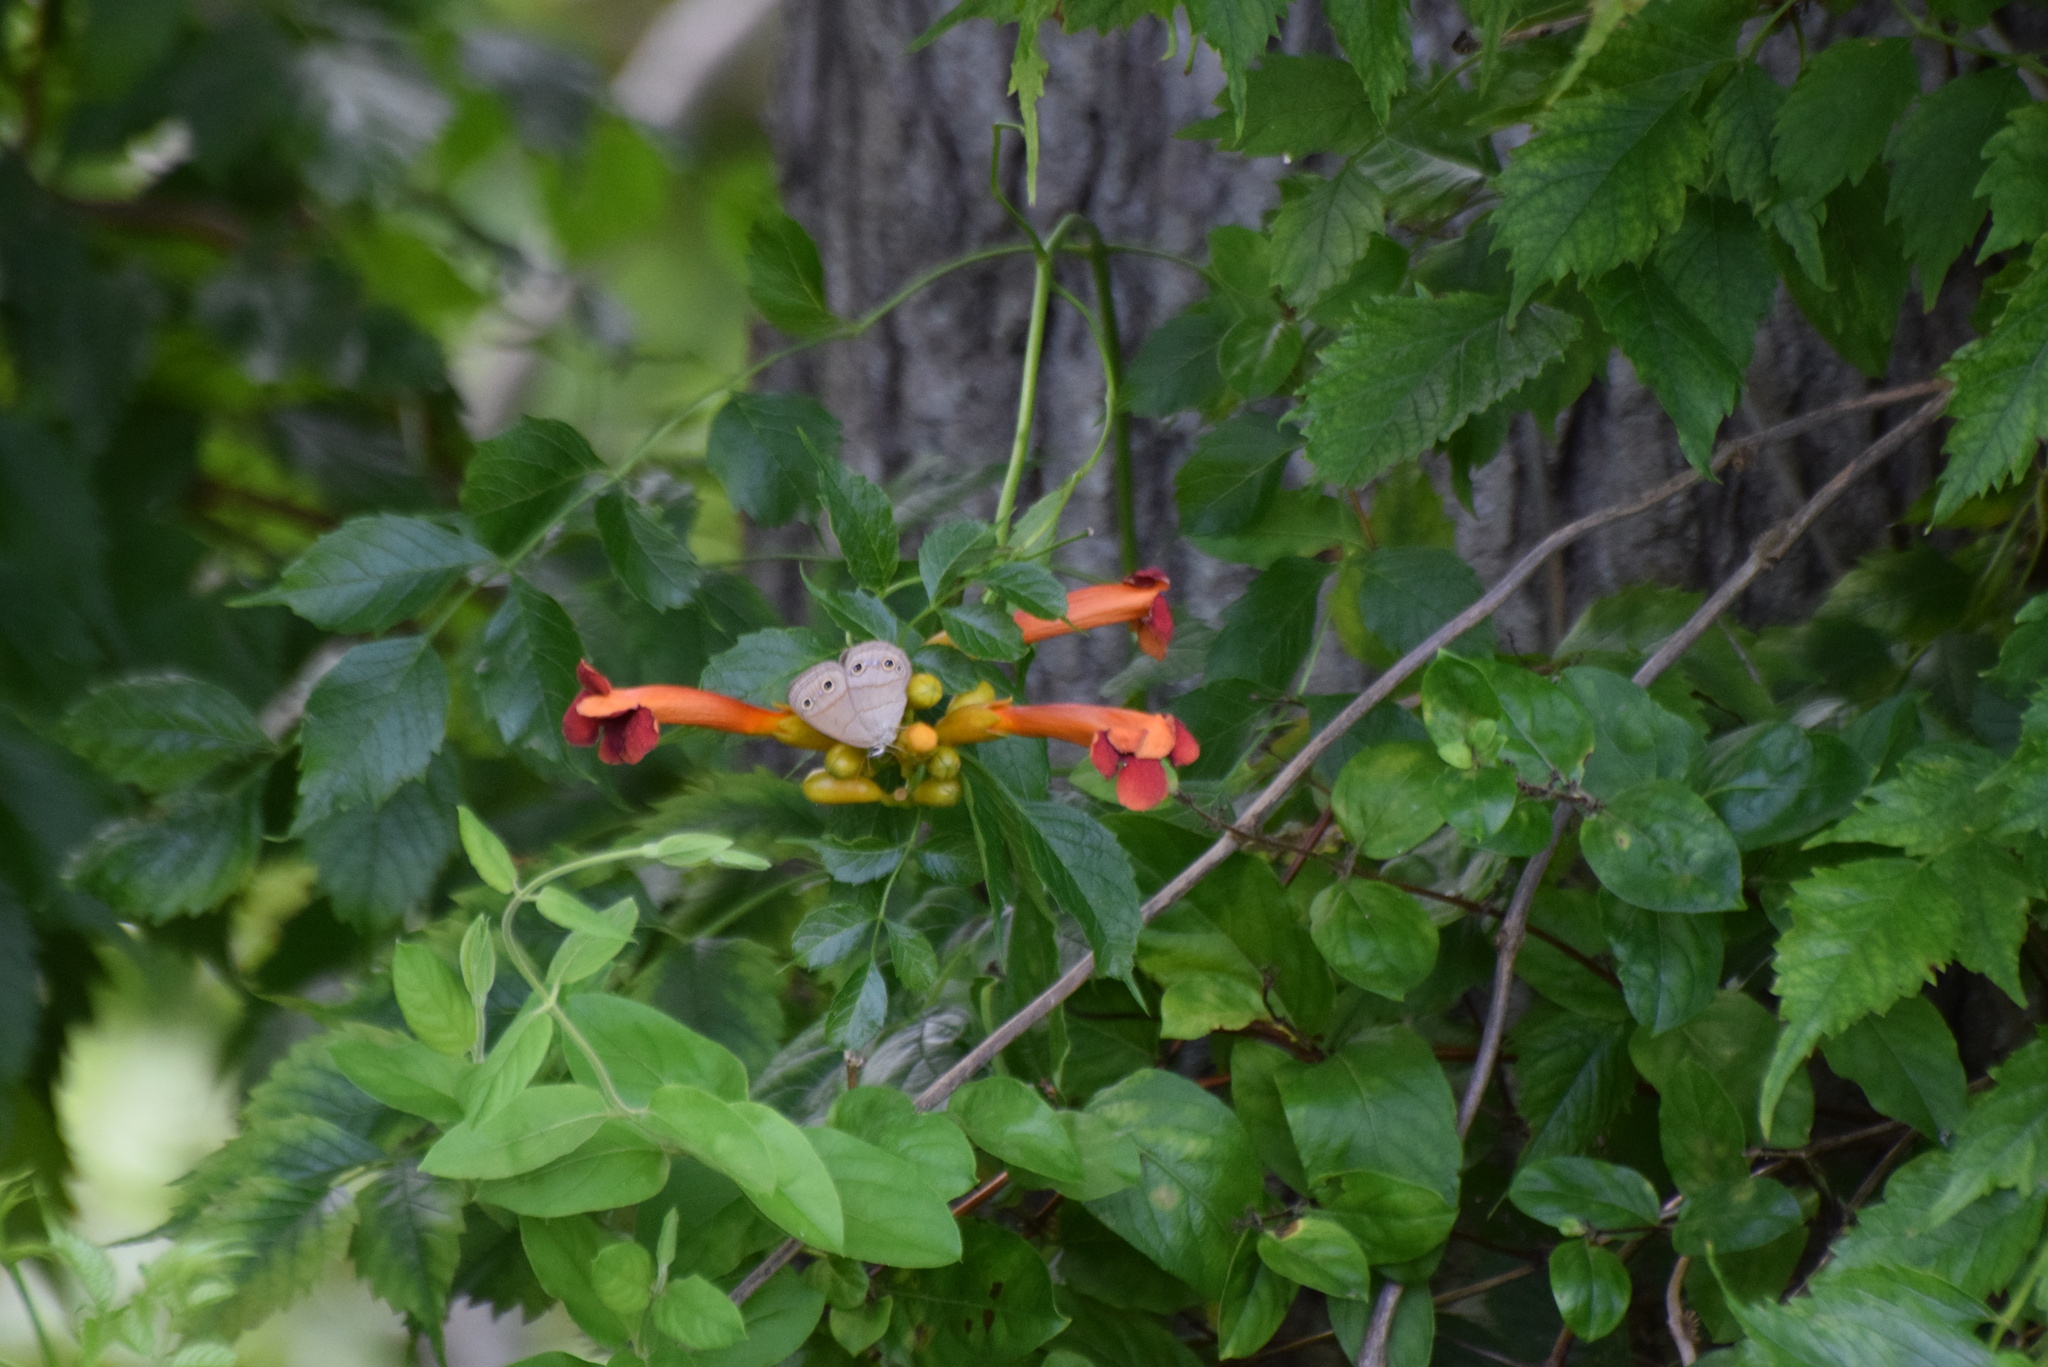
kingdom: Animalia
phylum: Arthropoda
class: Insecta
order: Lepidoptera
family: Nymphalidae
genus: Euptychia
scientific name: Euptychia cymela
